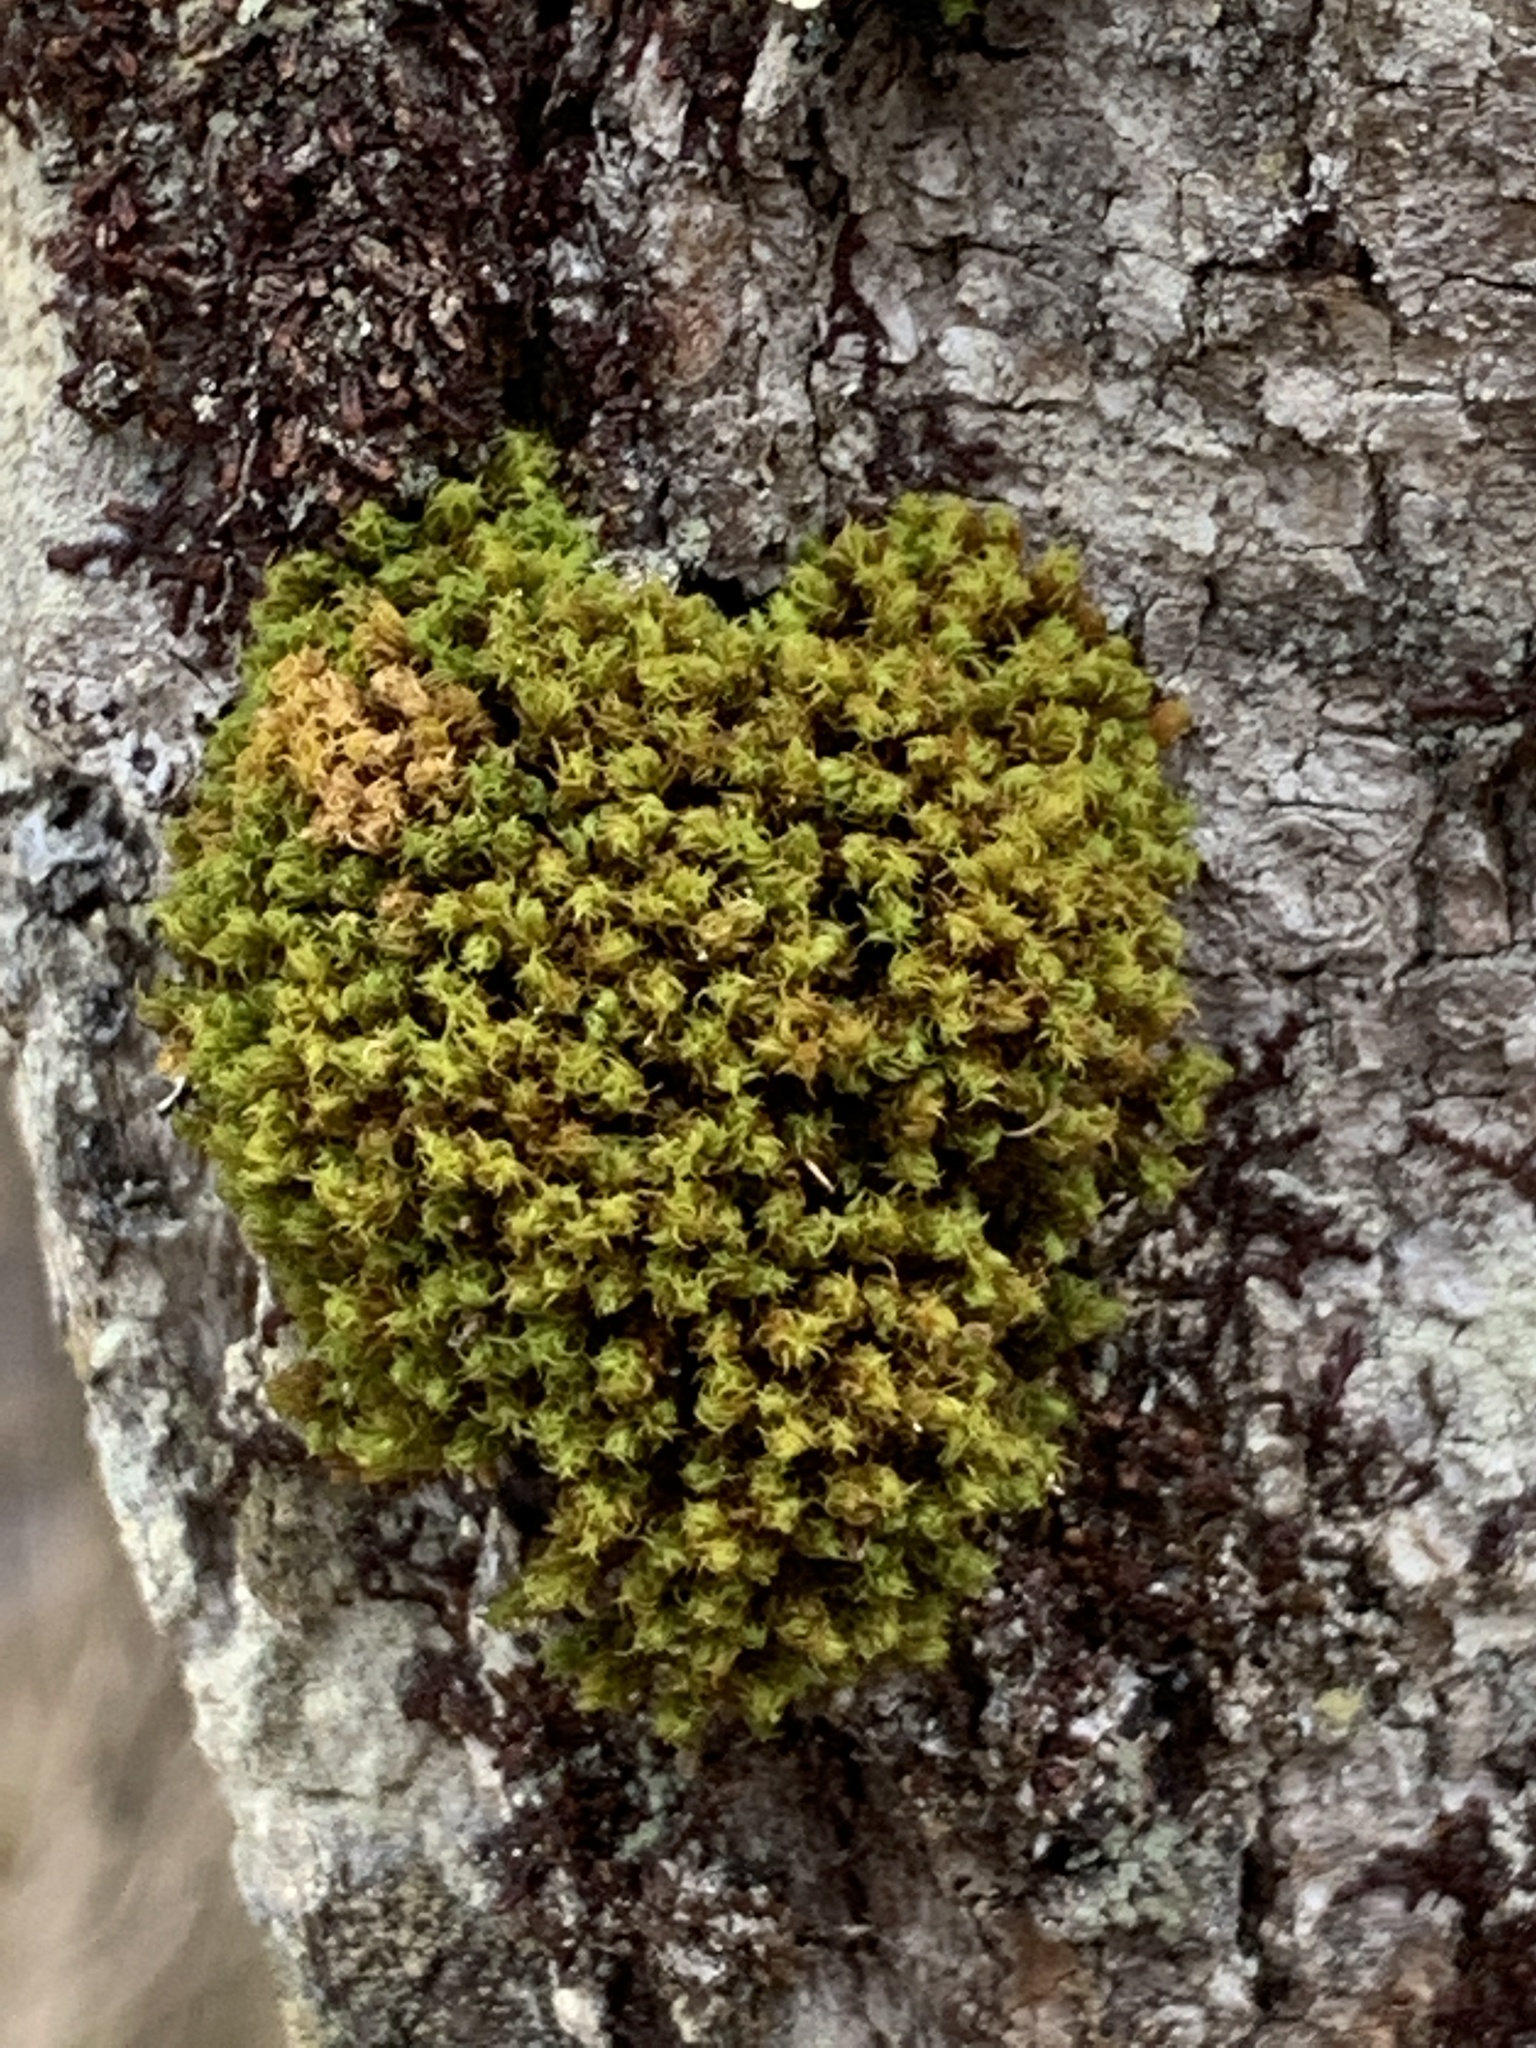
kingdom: Plantae
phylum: Bryophyta
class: Bryopsida
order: Orthotrichales
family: Orthotrichaceae
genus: Ulota
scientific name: Ulota crispa
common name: Crisped pincushion moss
